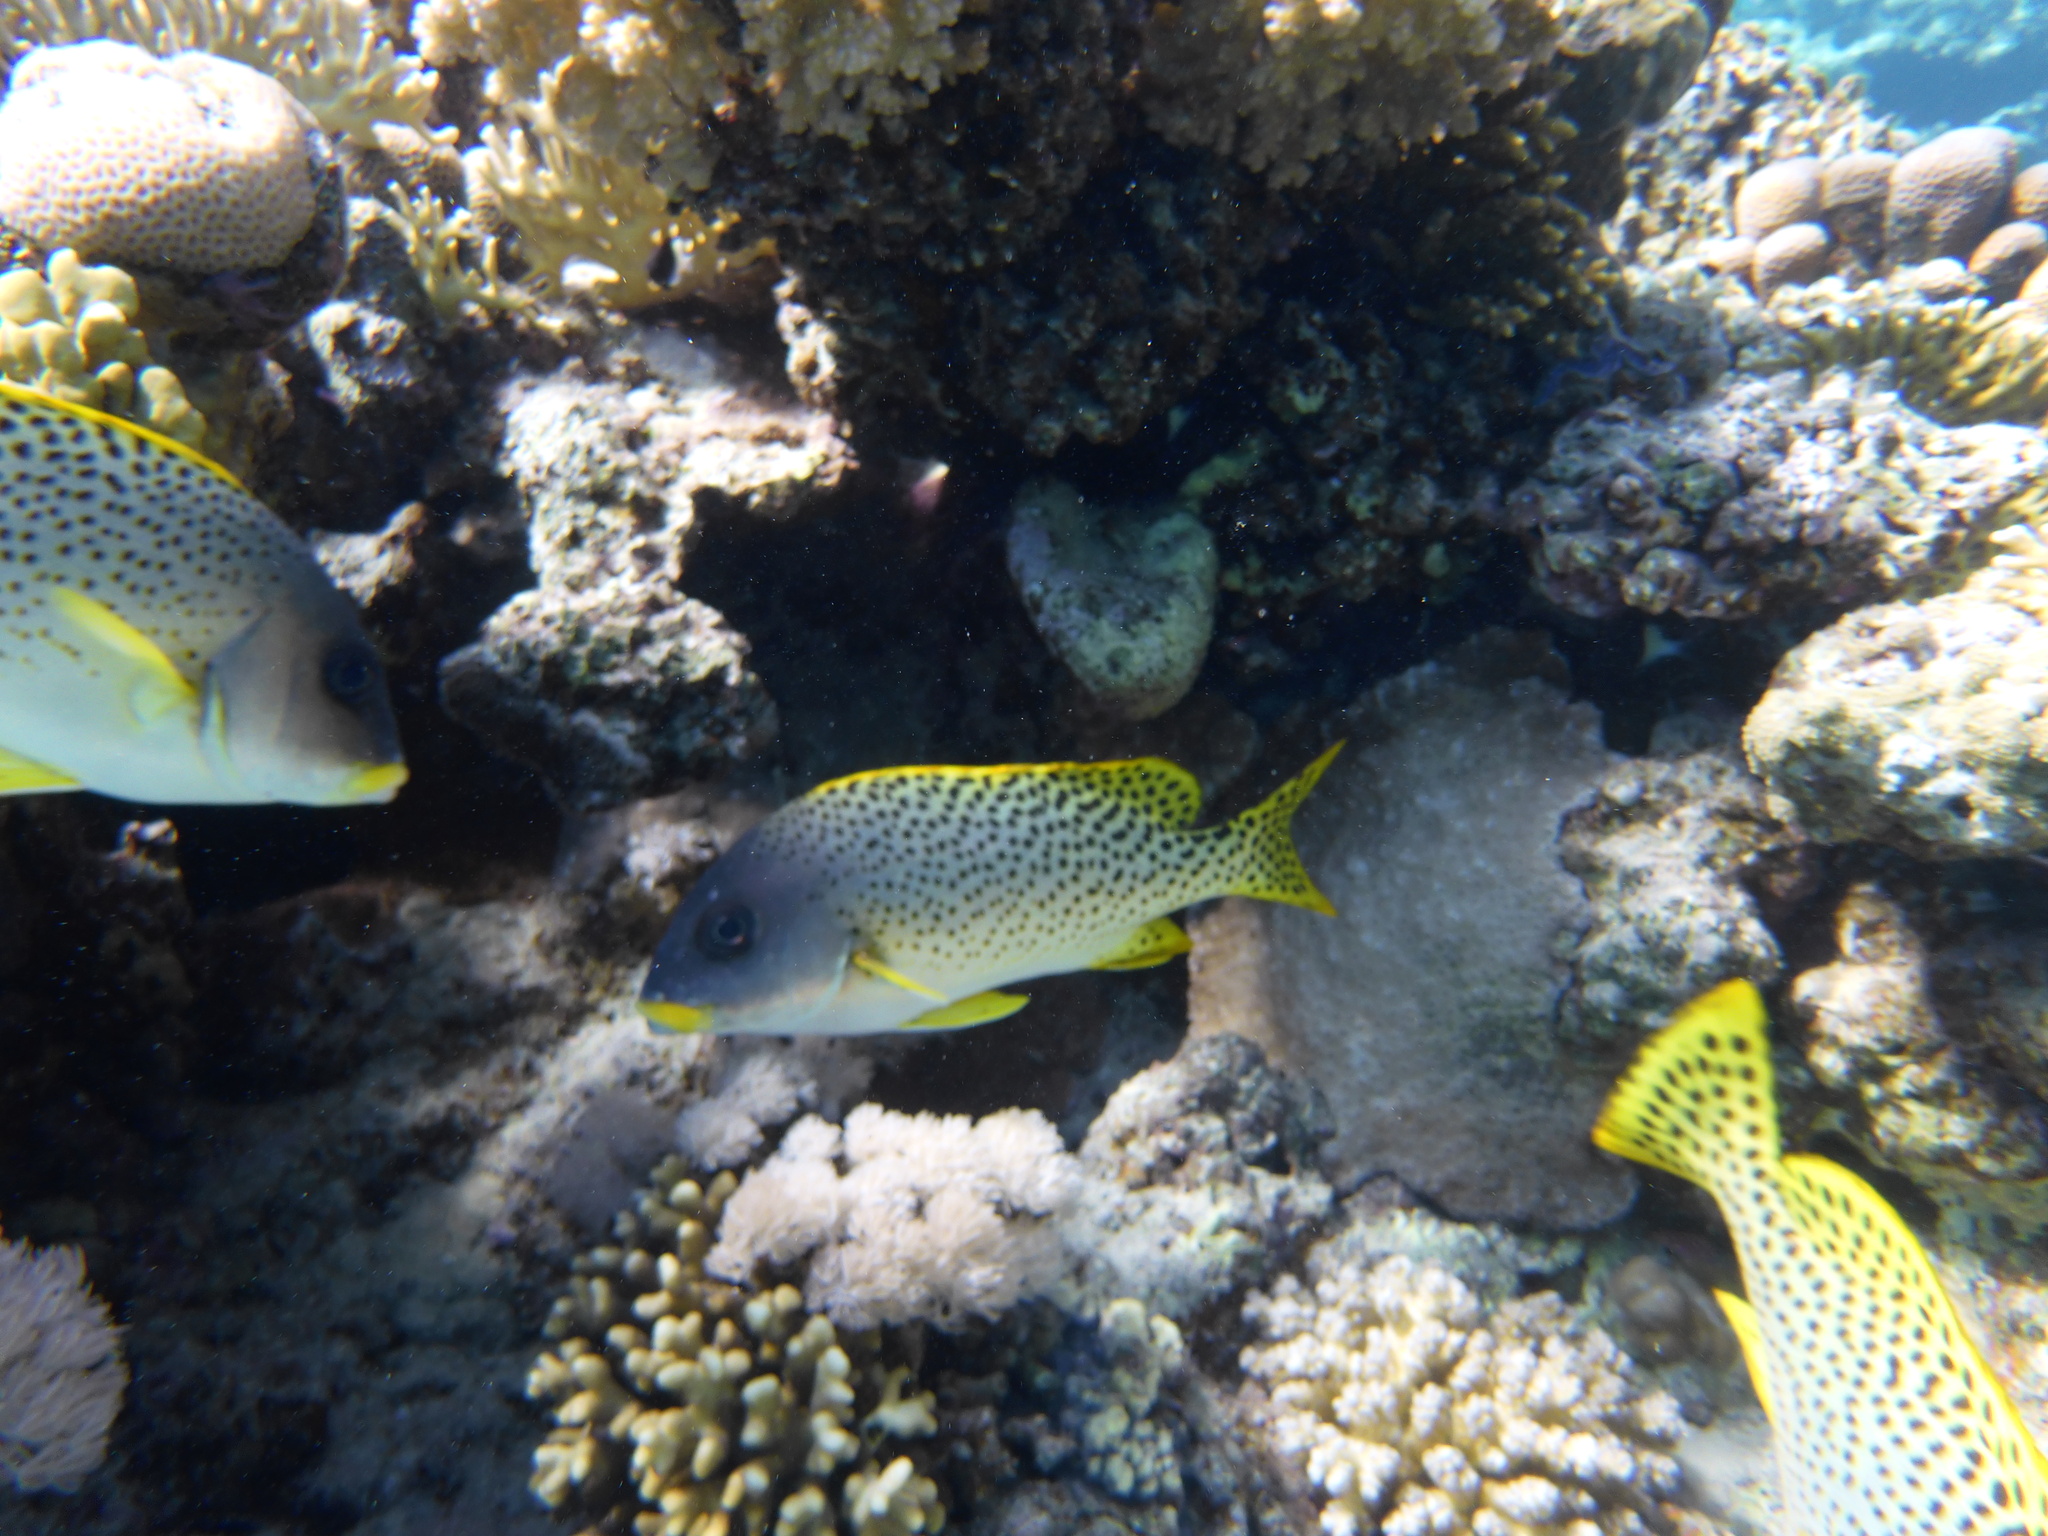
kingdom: Animalia
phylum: Chordata
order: Perciformes
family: Haemulidae
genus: Plectorhinchus
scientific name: Plectorhinchus gaterinus
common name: Blackspotted rubberlip
